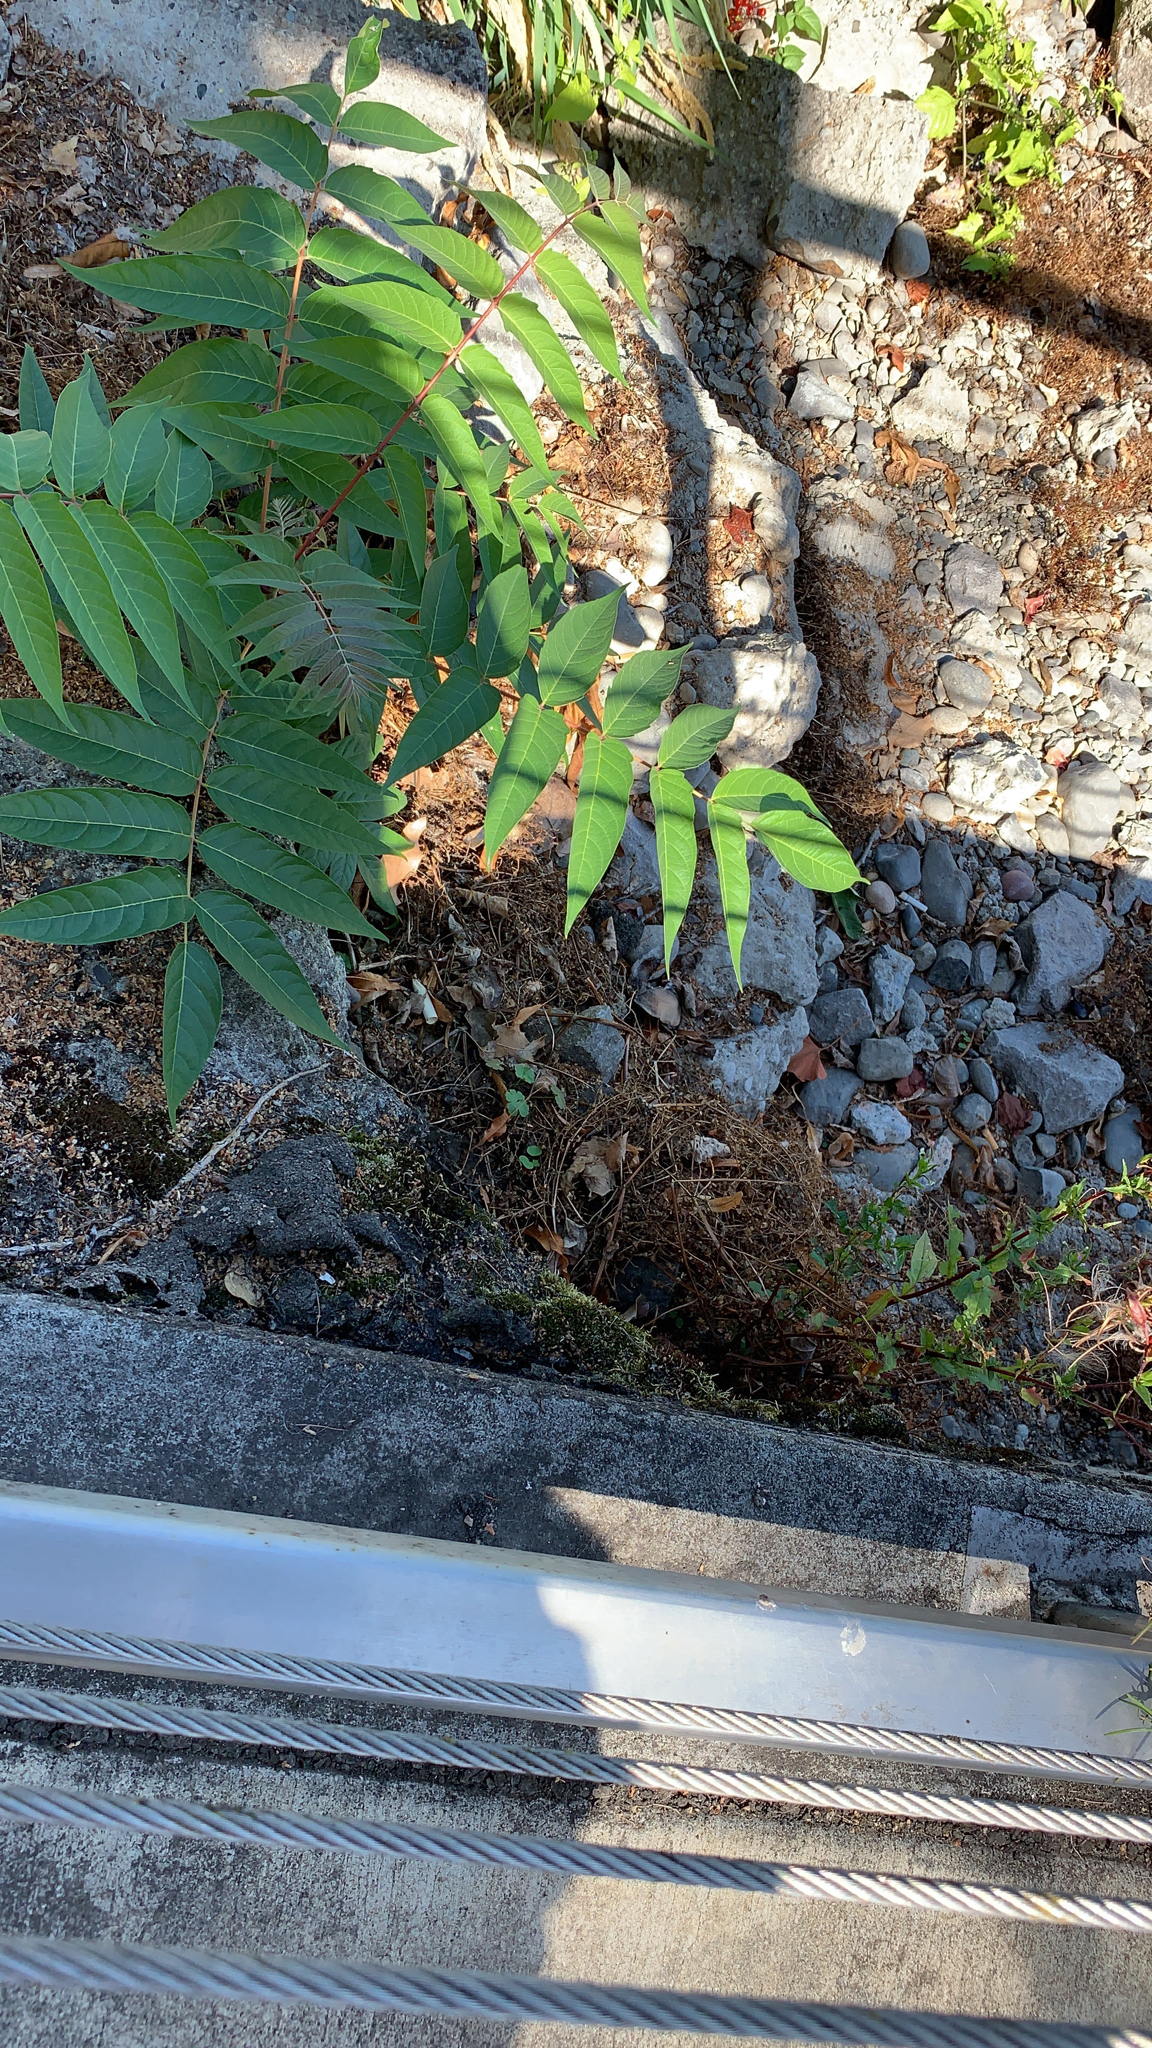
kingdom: Plantae
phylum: Tracheophyta
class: Magnoliopsida
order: Sapindales
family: Simaroubaceae
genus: Ailanthus
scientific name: Ailanthus altissima
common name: Tree-of-heaven
